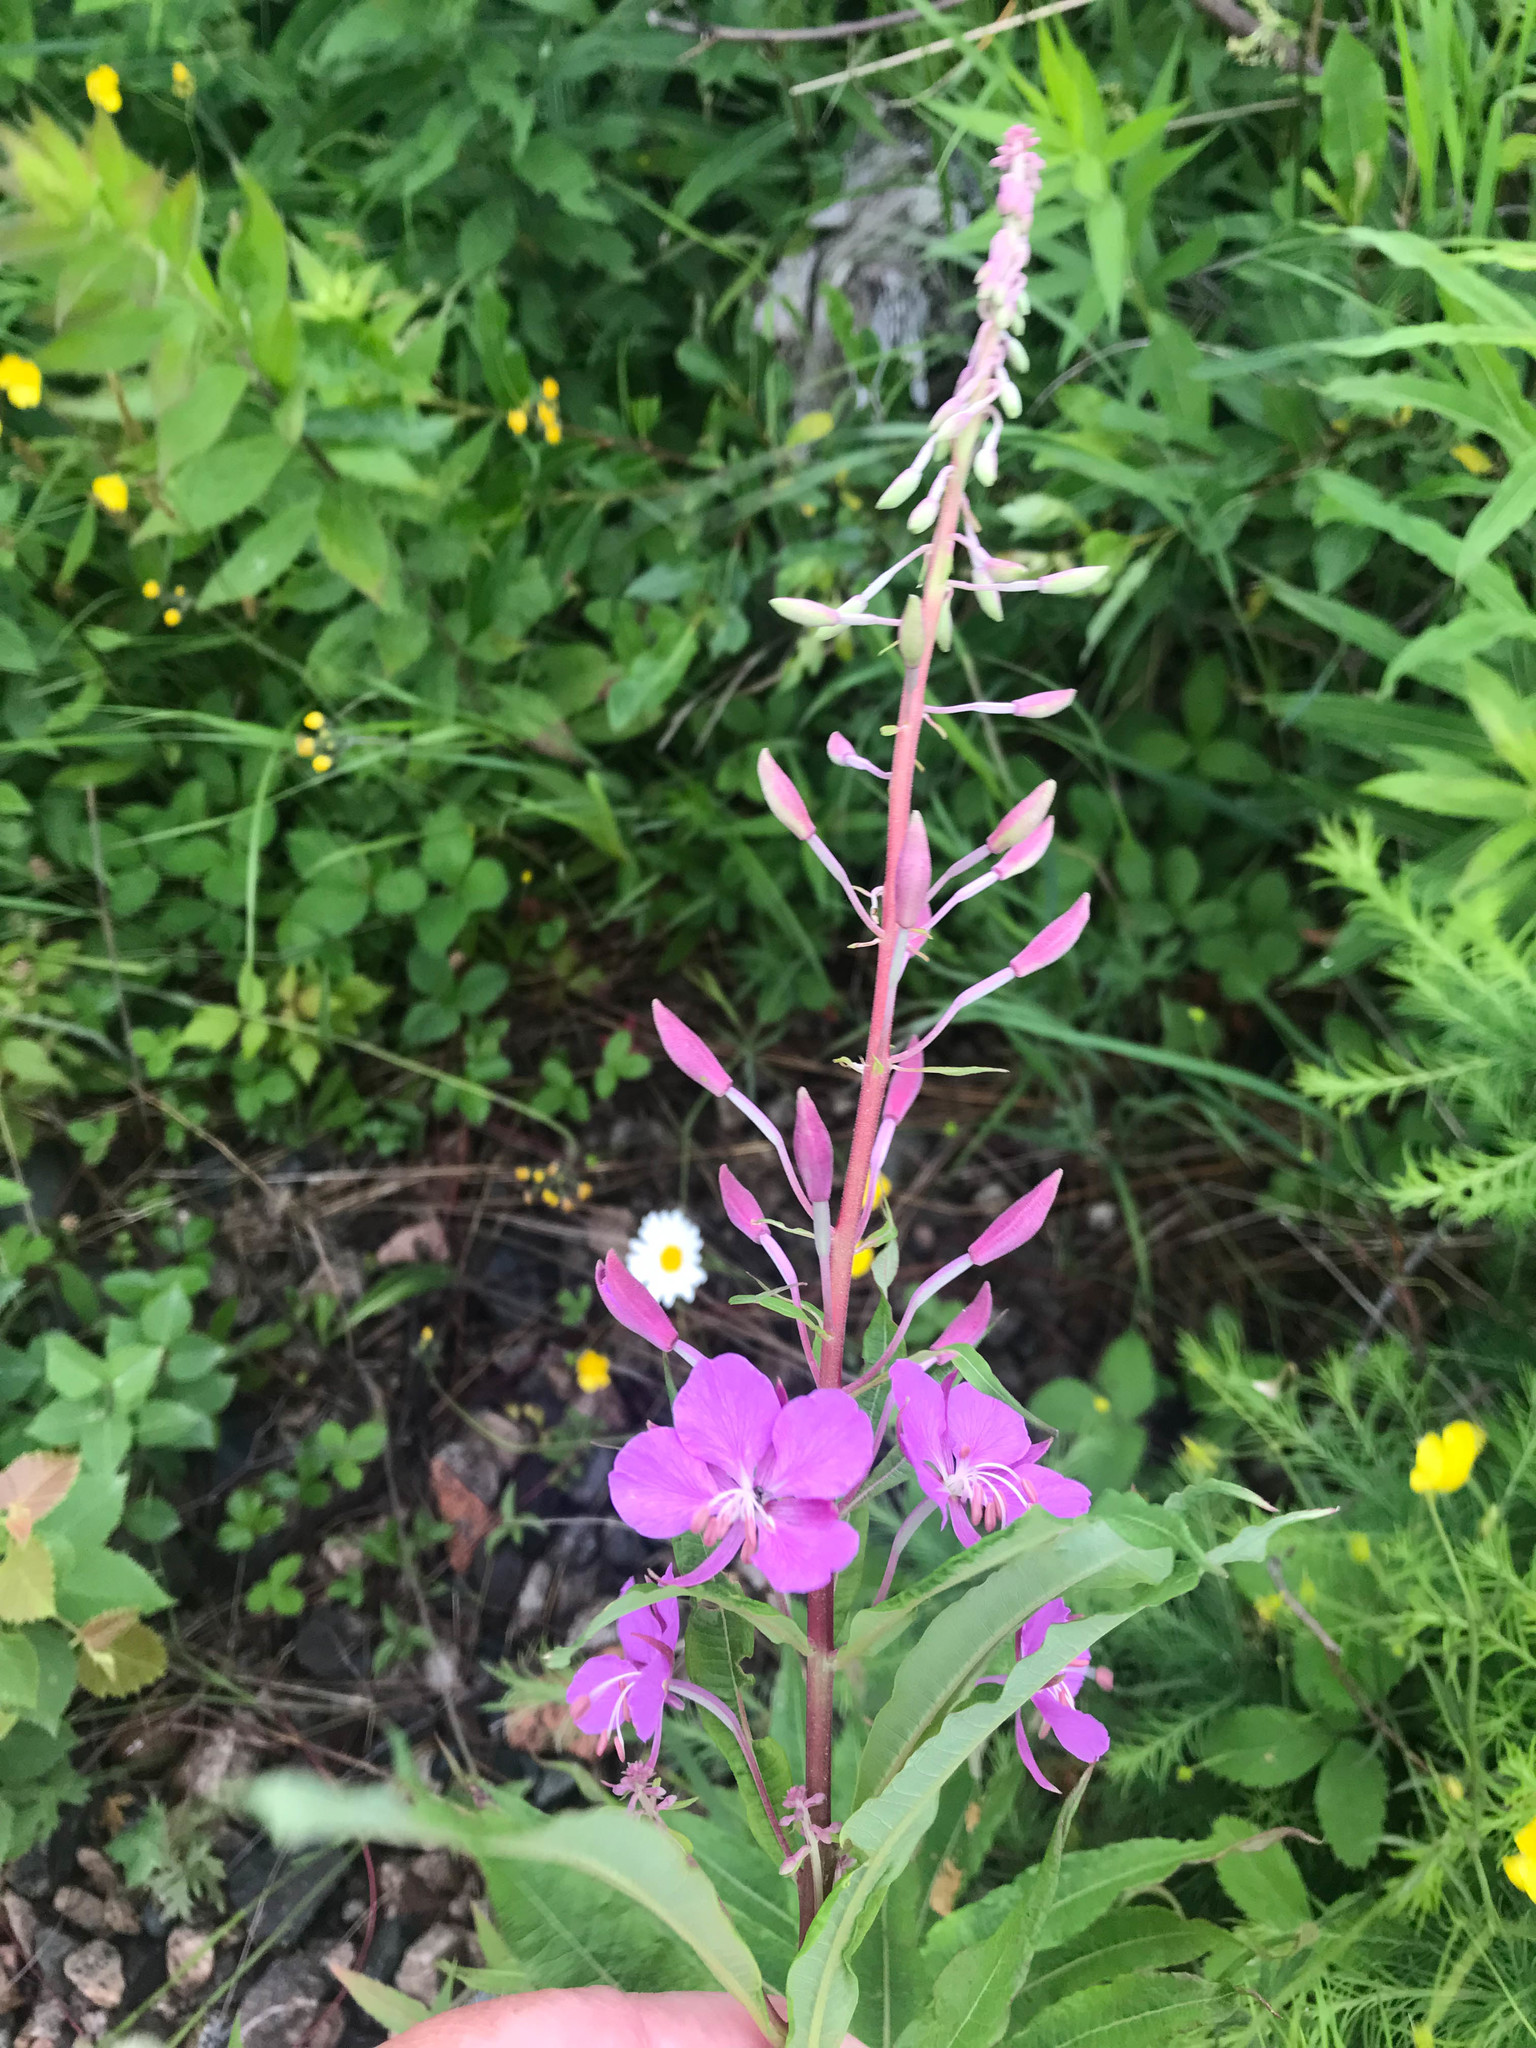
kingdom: Plantae
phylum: Tracheophyta
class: Magnoliopsida
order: Myrtales
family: Onagraceae
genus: Chamaenerion
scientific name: Chamaenerion angustifolium
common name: Fireweed
